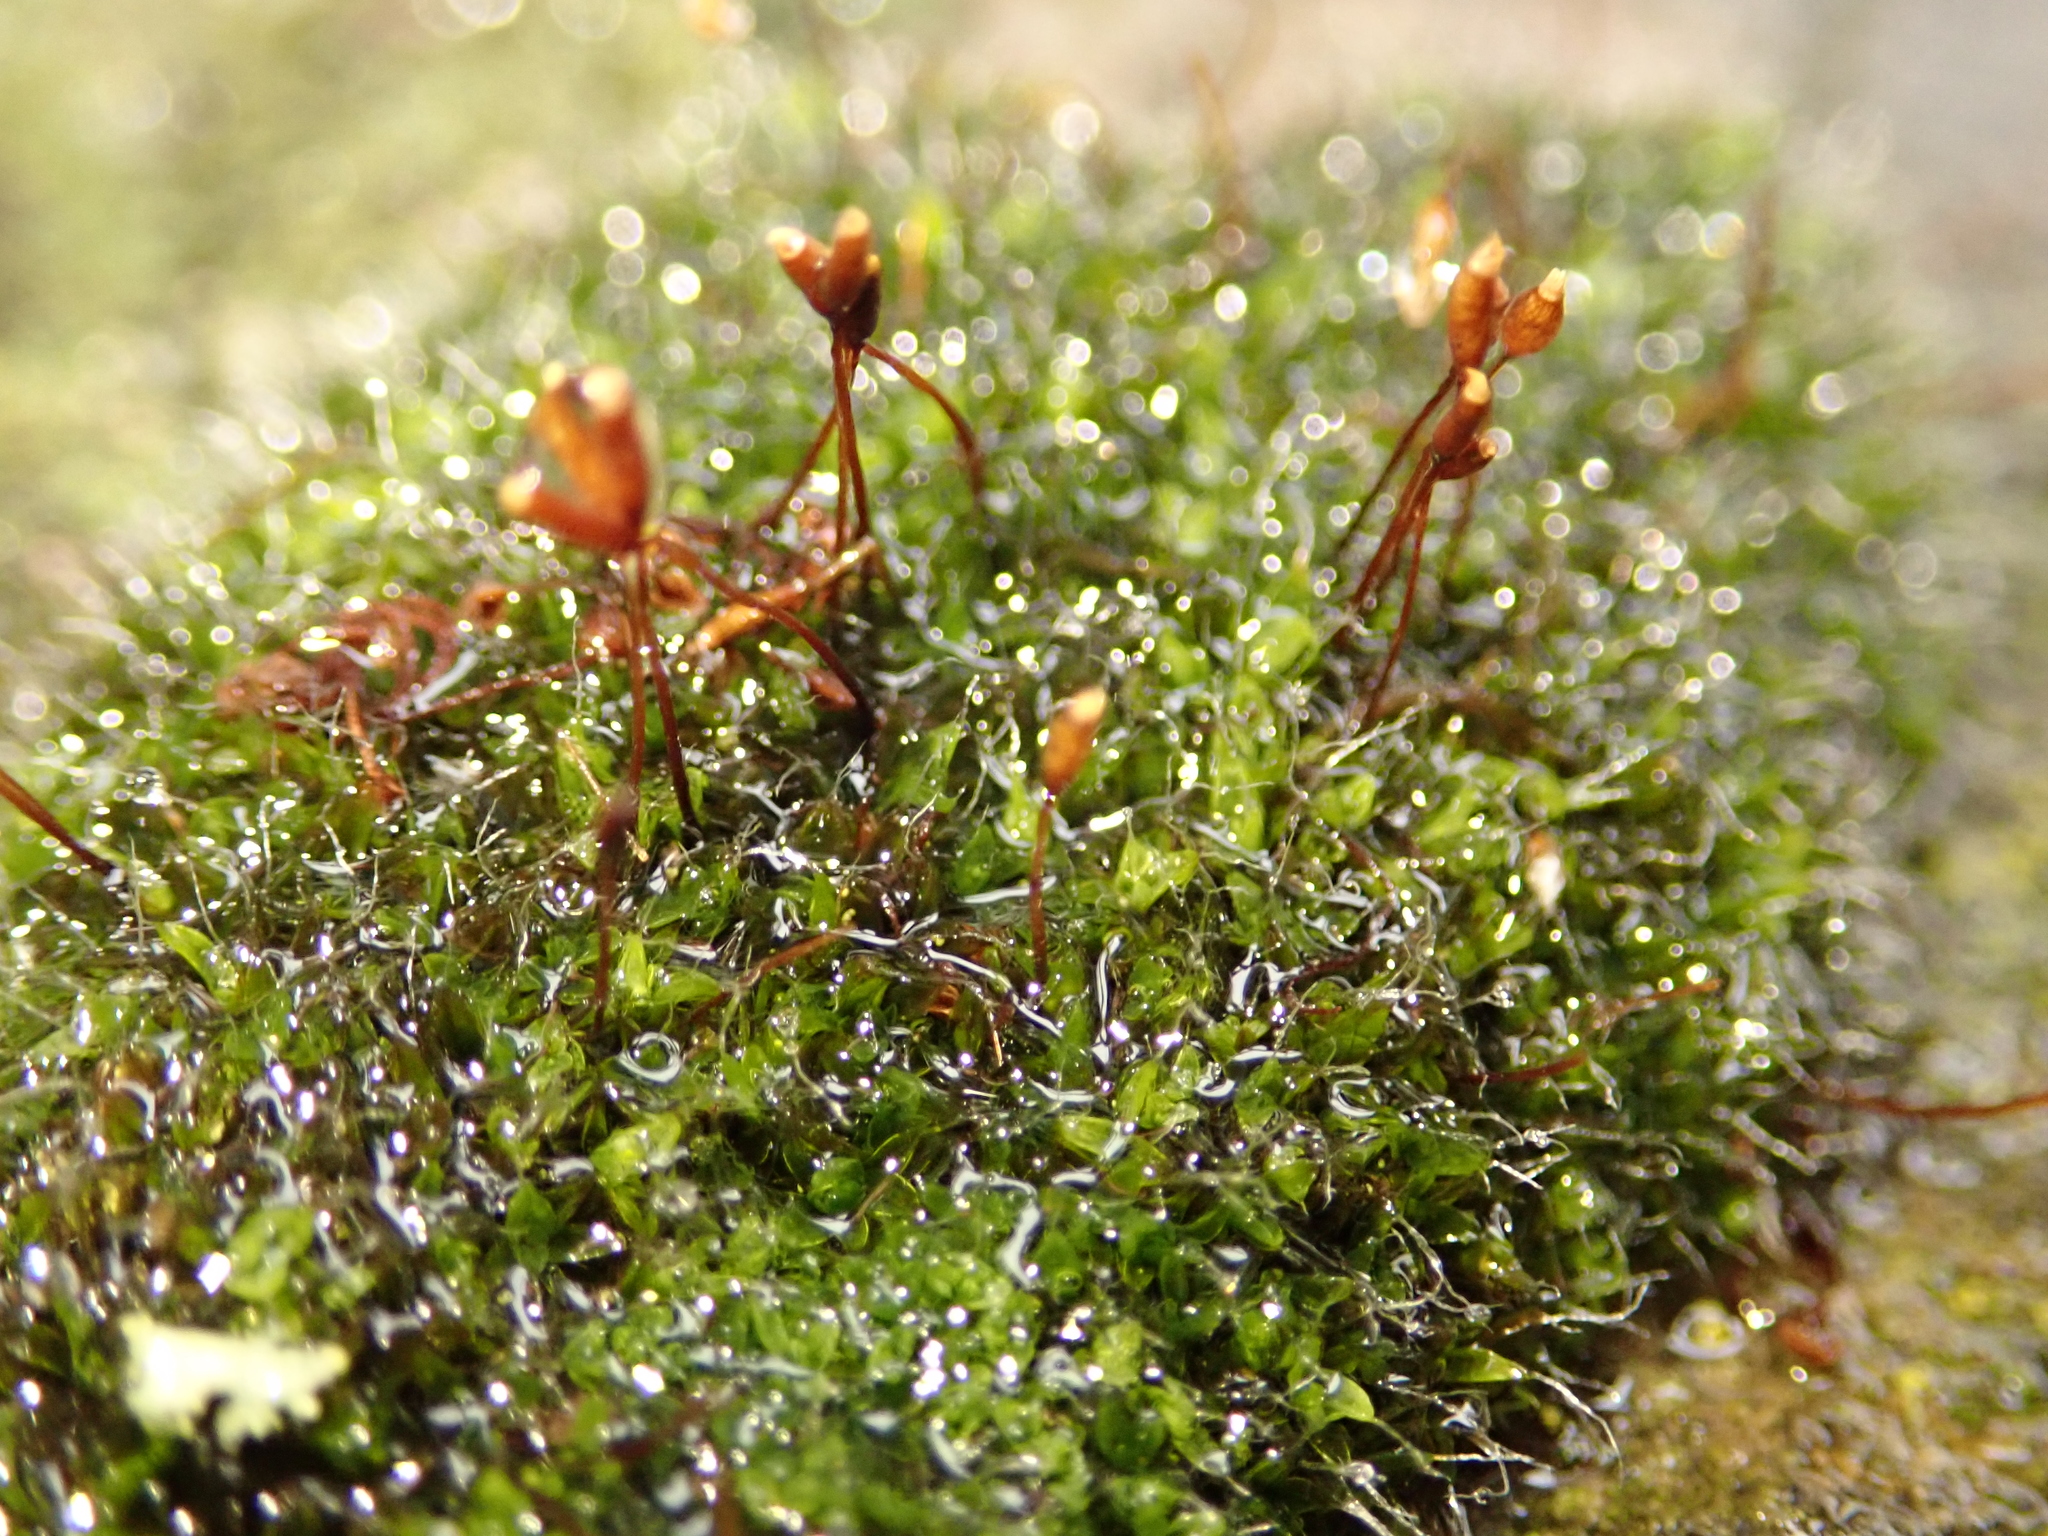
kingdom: Plantae
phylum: Bryophyta
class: Bryopsida
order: Pottiales
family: Pottiaceae
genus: Tortula
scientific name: Tortula muralis
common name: Wall screw-moss
